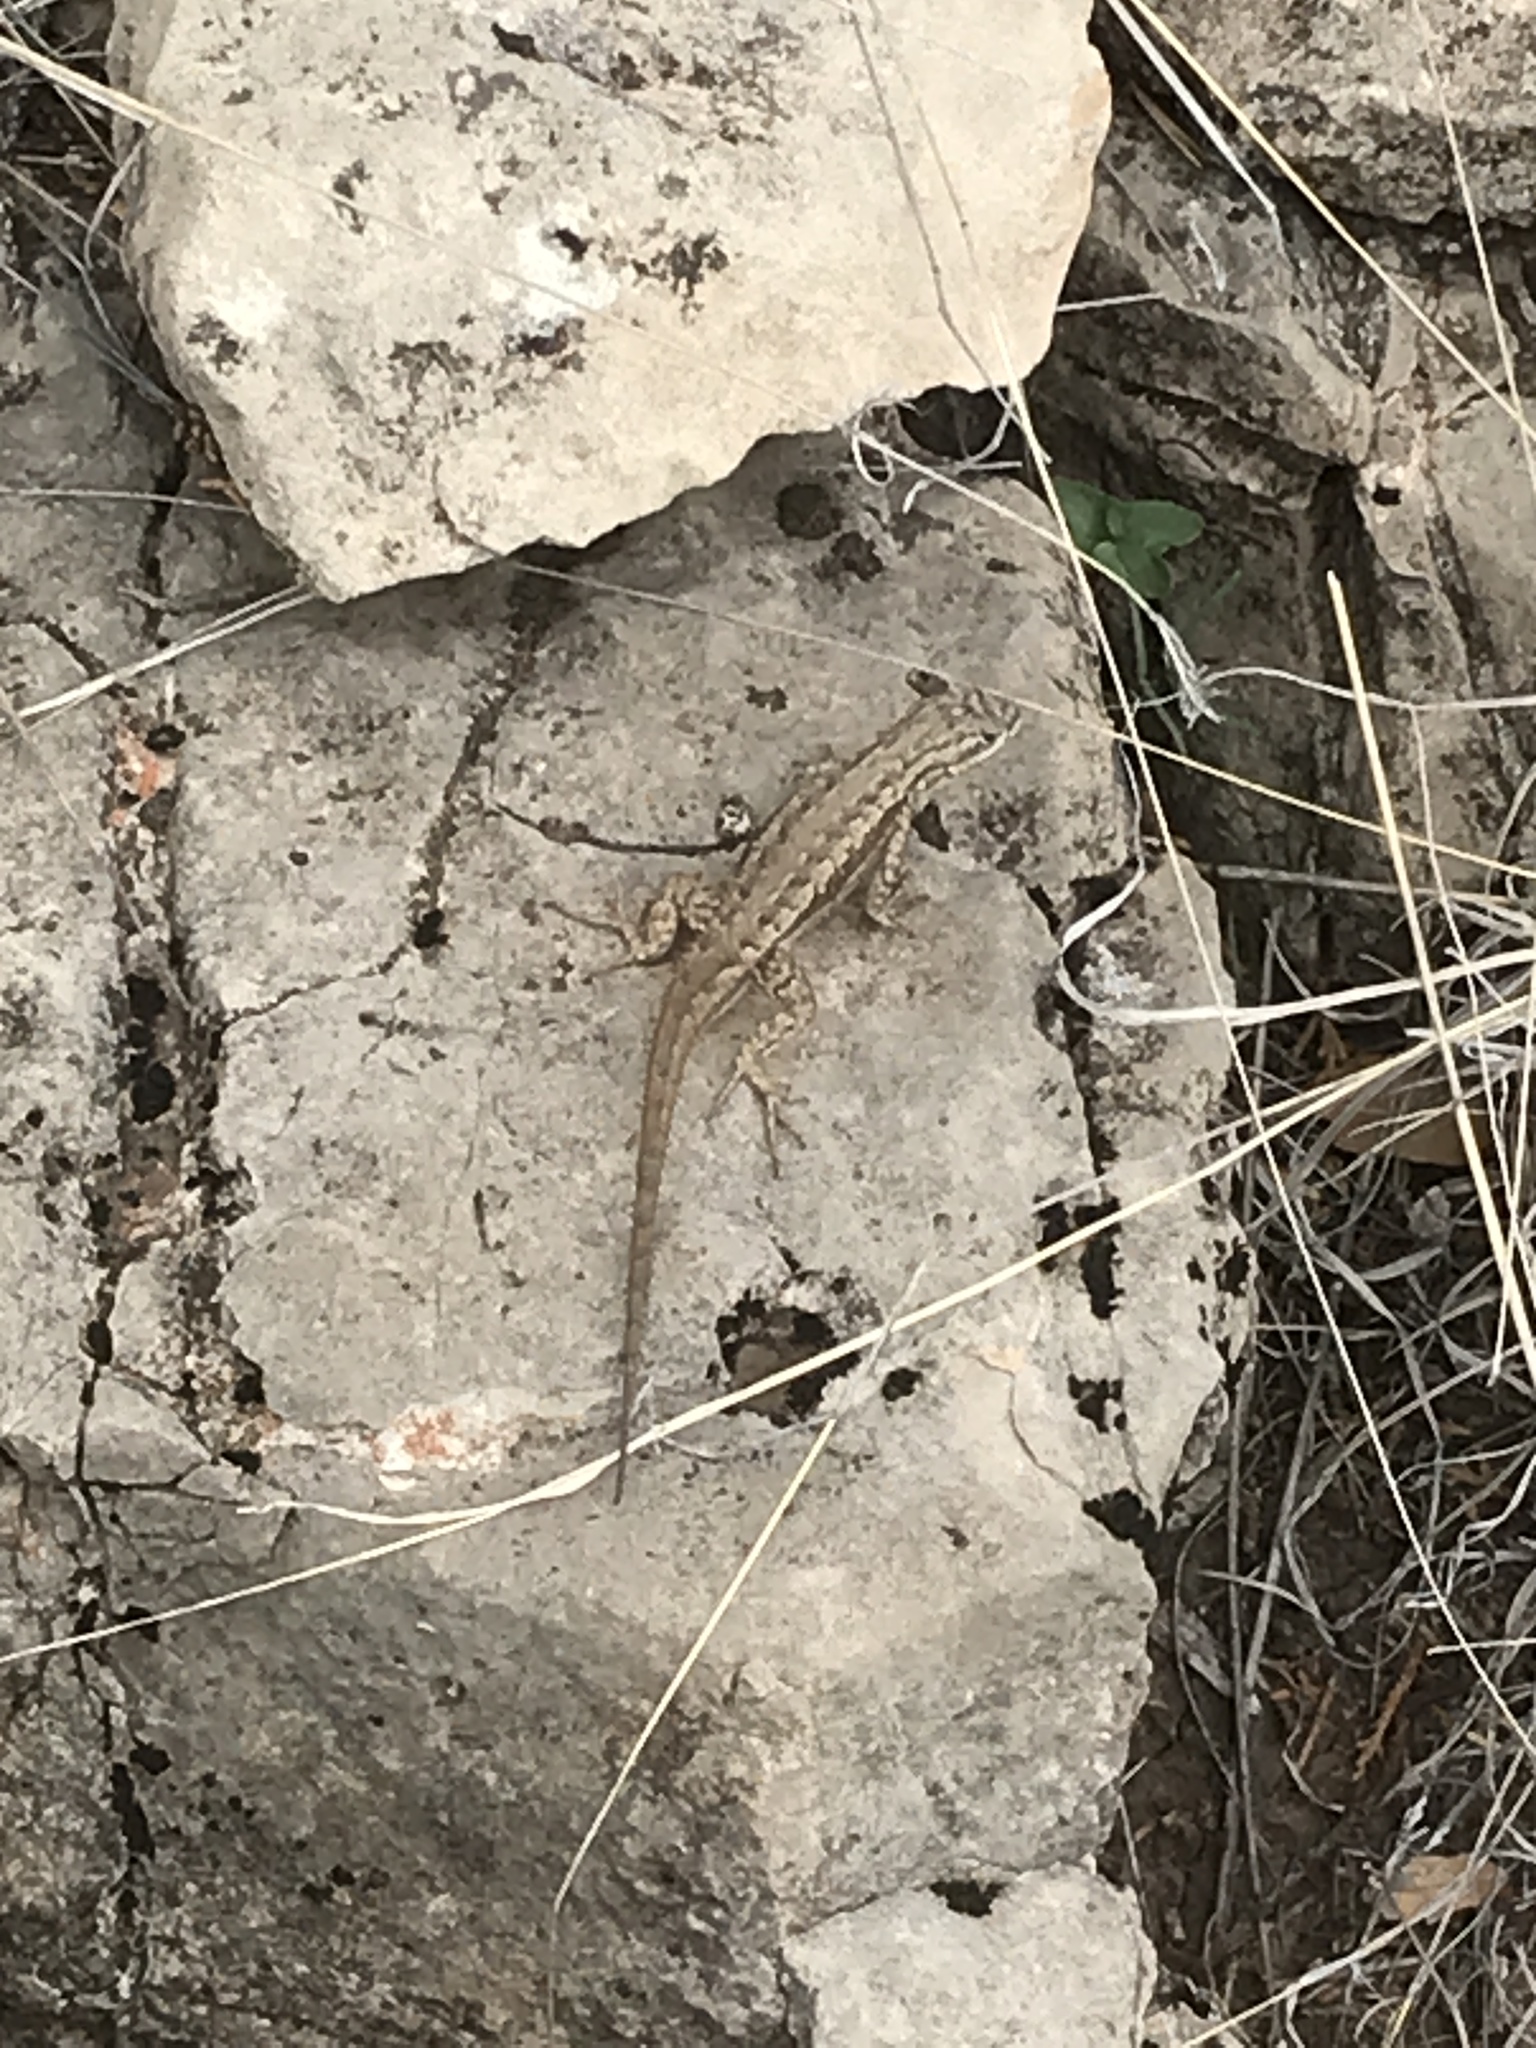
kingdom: Animalia
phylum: Chordata
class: Squamata
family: Phrynosomatidae
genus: Sceloporus
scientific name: Sceloporus cowlesi
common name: White sands prairie lizard
